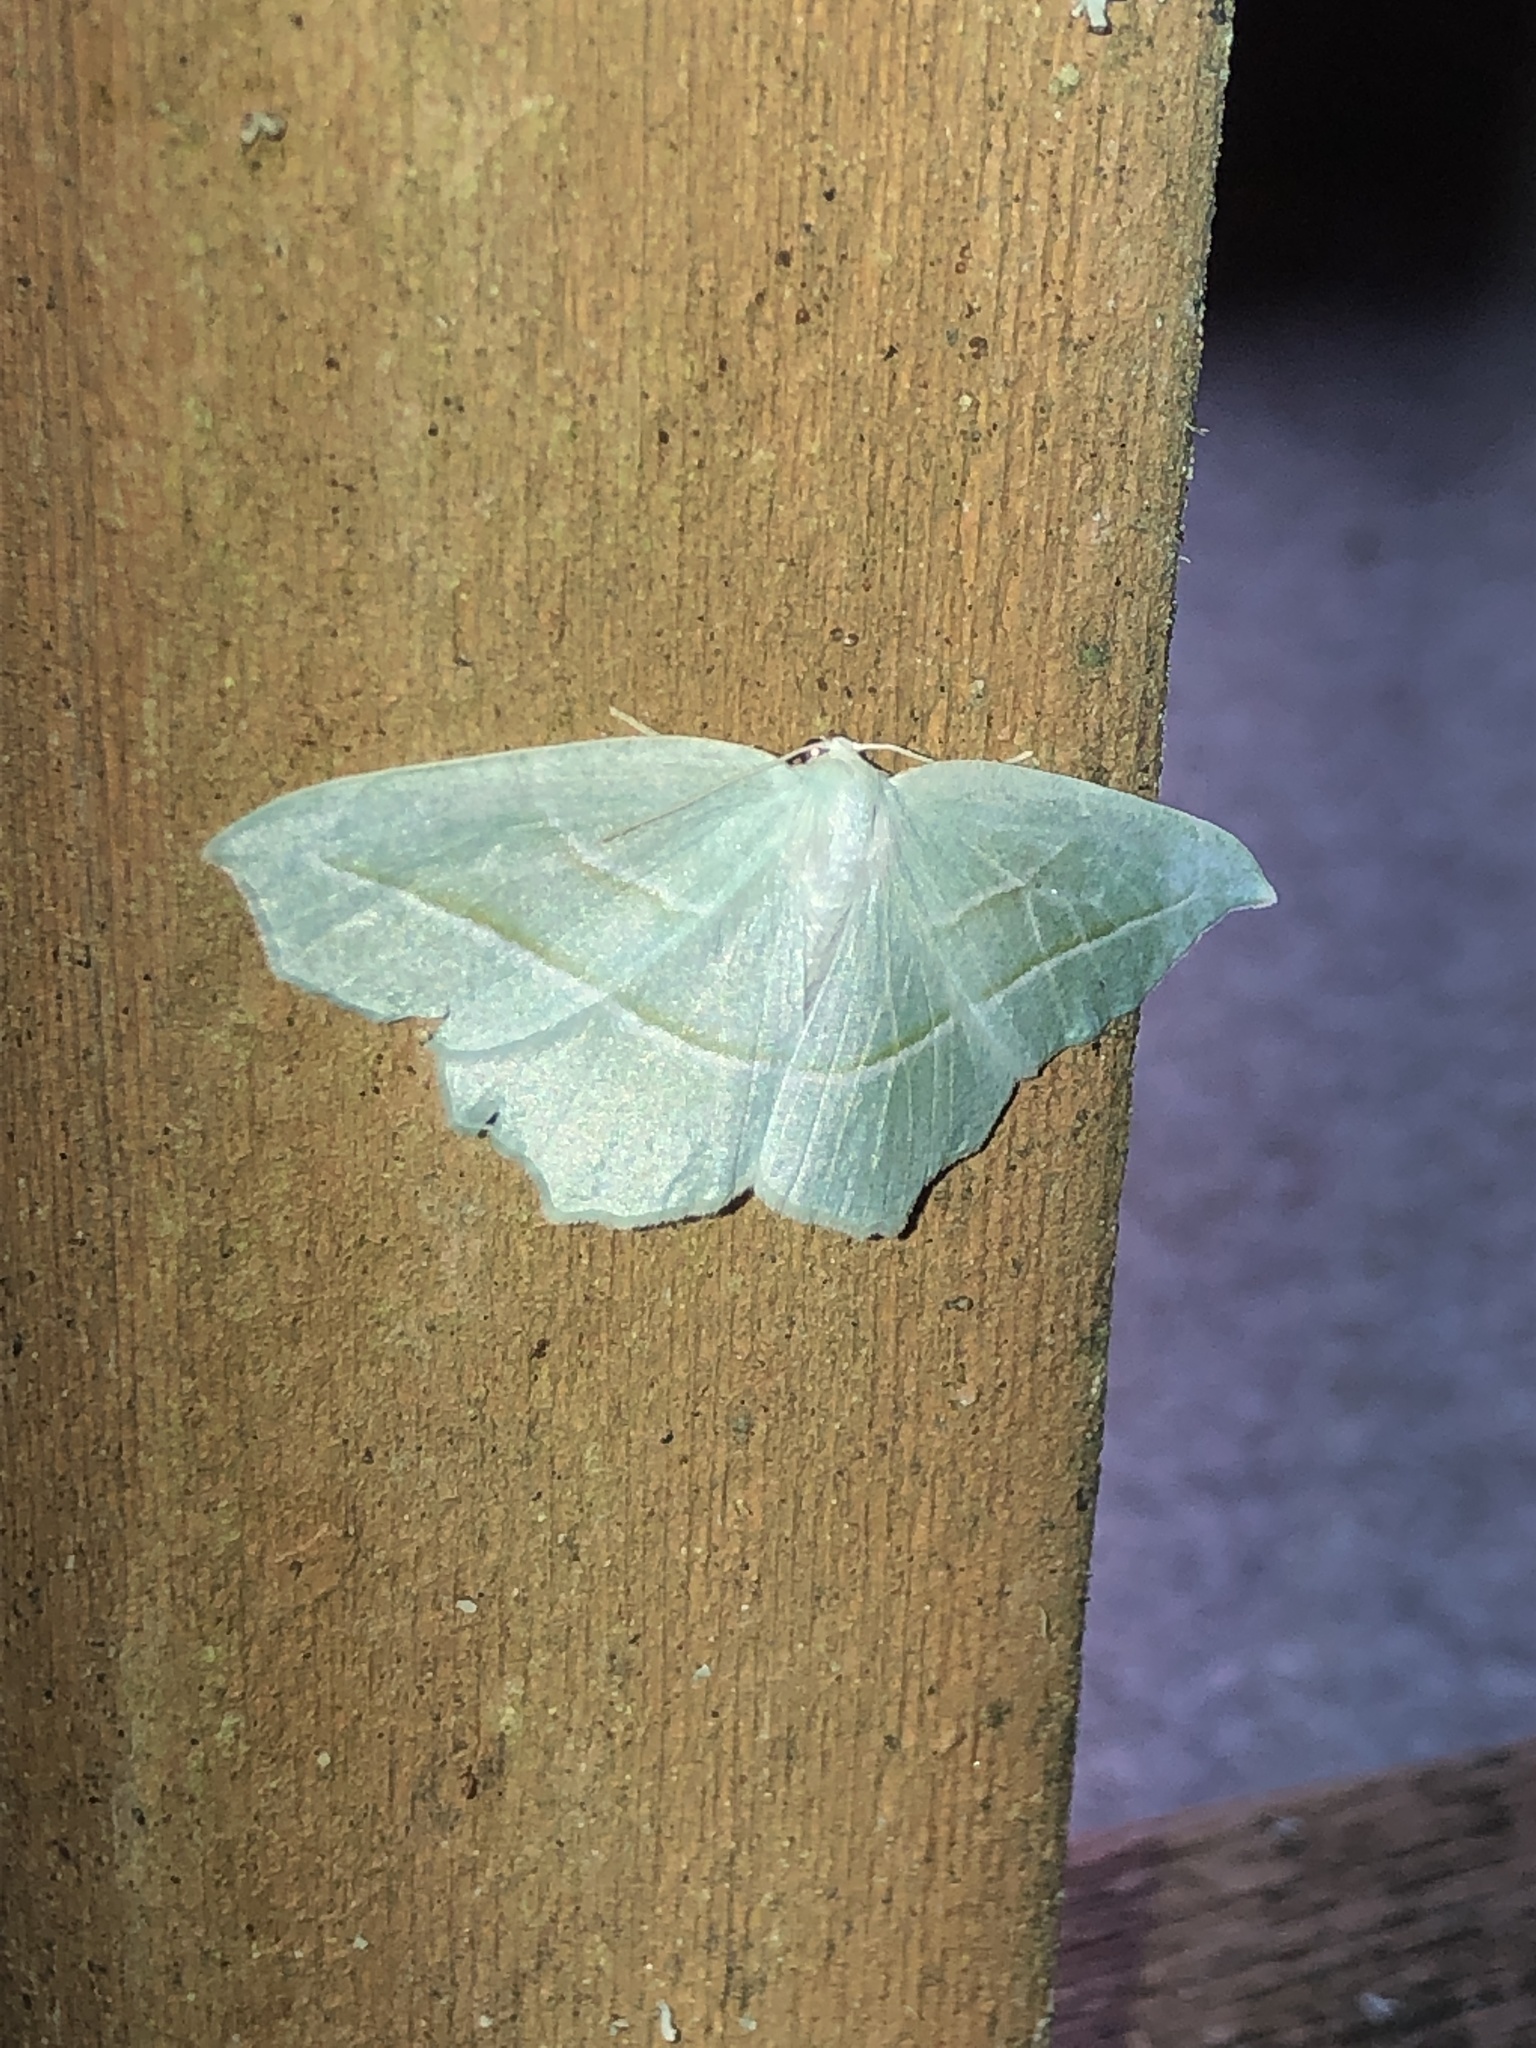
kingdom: Animalia
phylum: Arthropoda
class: Insecta
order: Lepidoptera
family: Geometridae
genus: Campaea
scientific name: Campaea perlata
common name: Fringed looper
